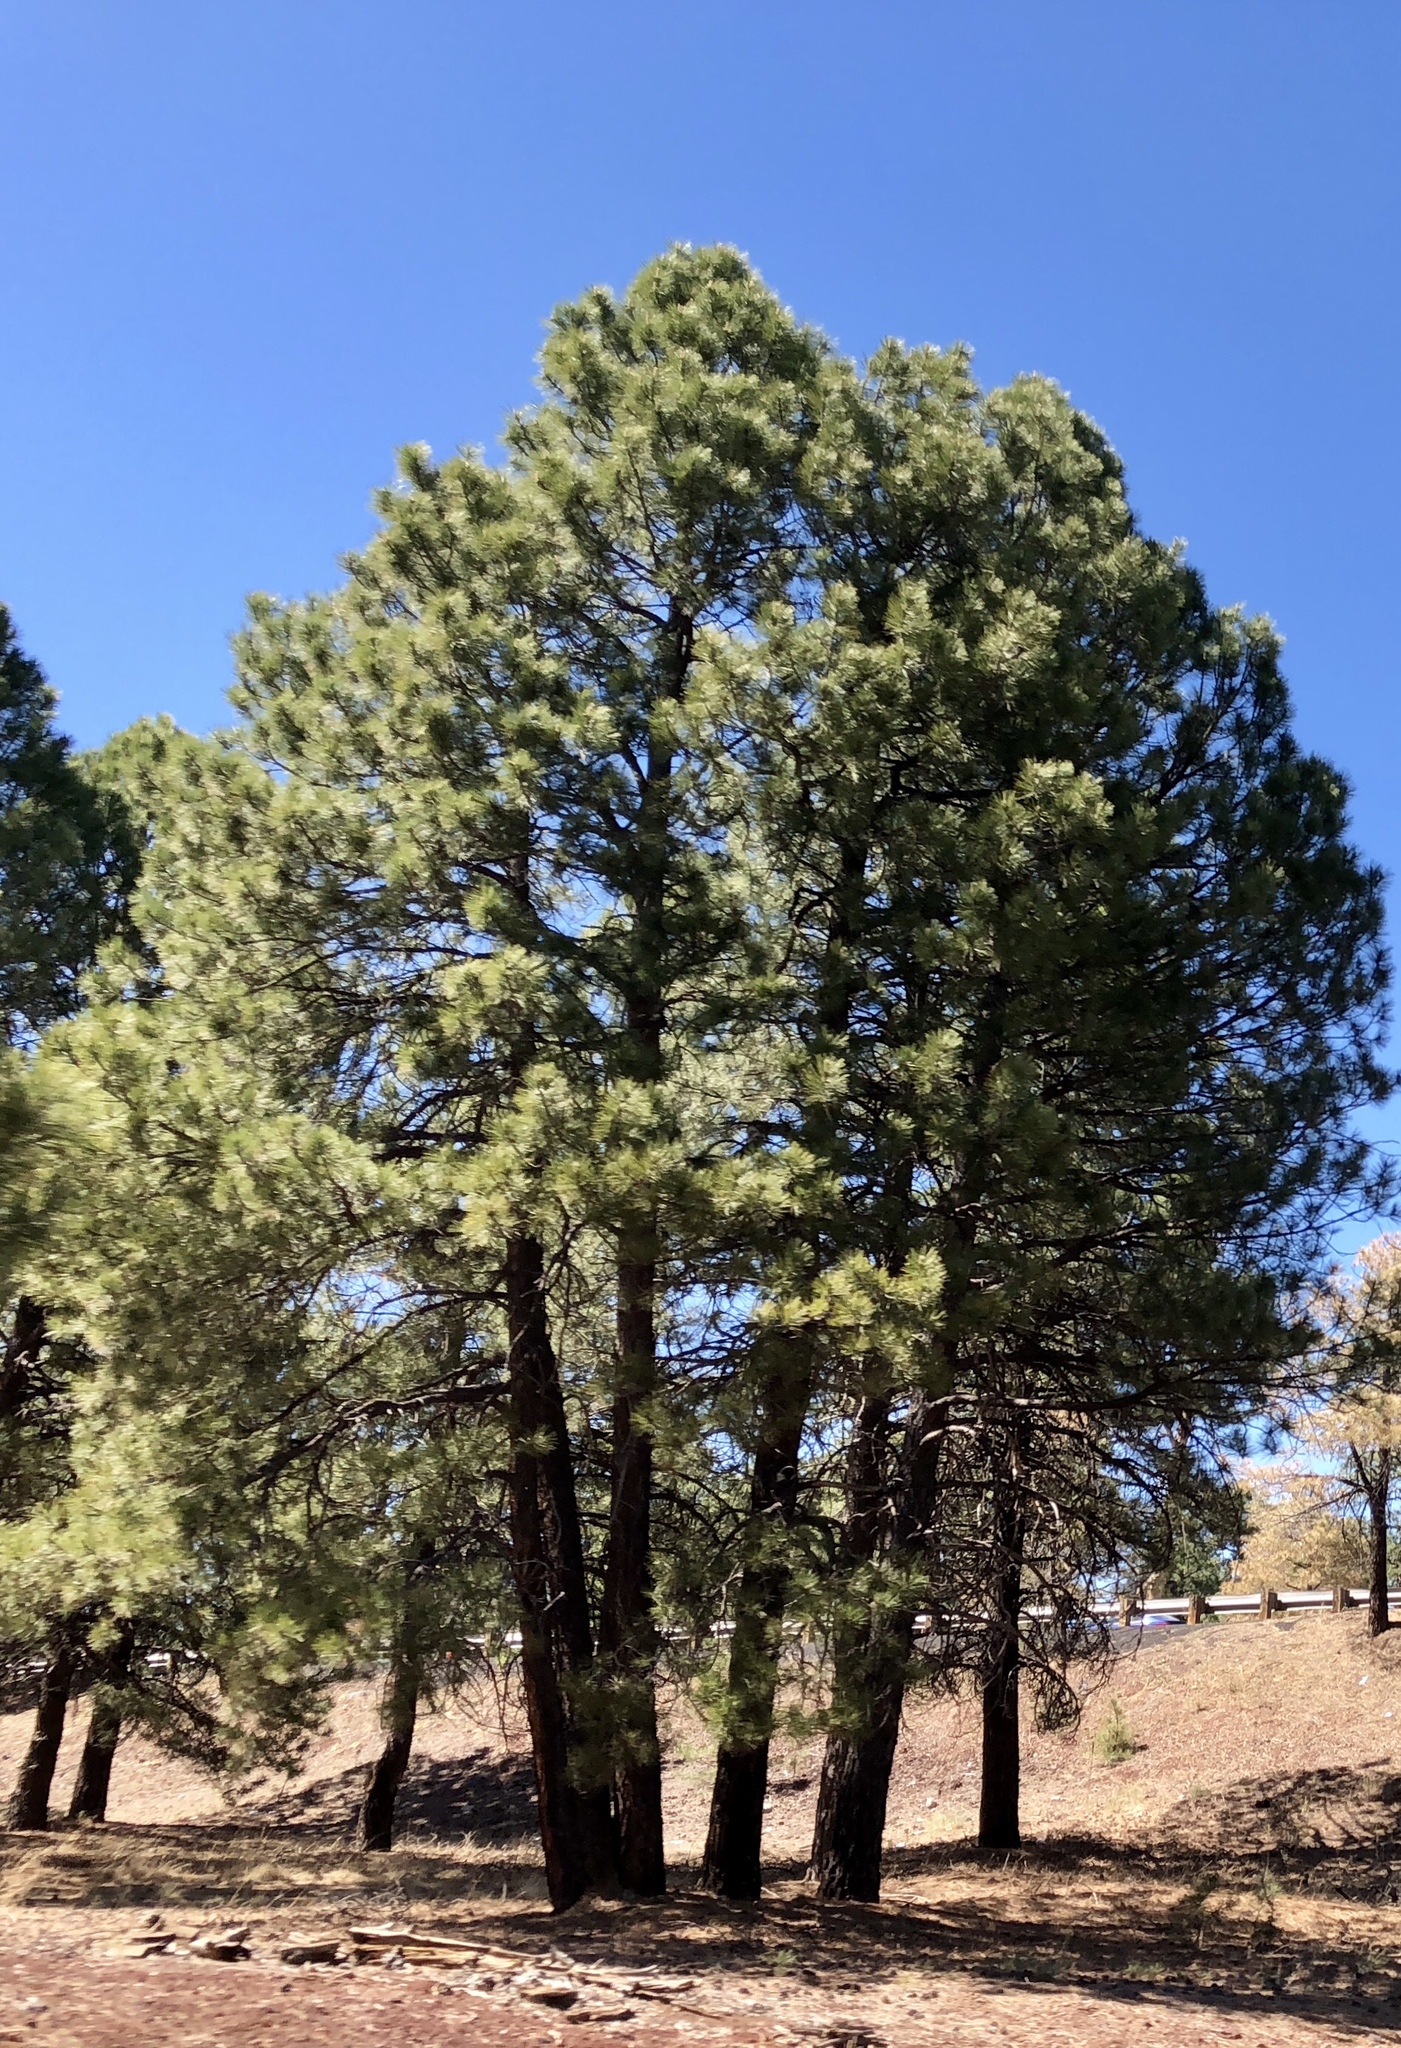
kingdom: Plantae
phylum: Tracheophyta
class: Pinopsida
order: Pinales
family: Pinaceae
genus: Pinus
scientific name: Pinus ponderosa
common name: Western yellow-pine
